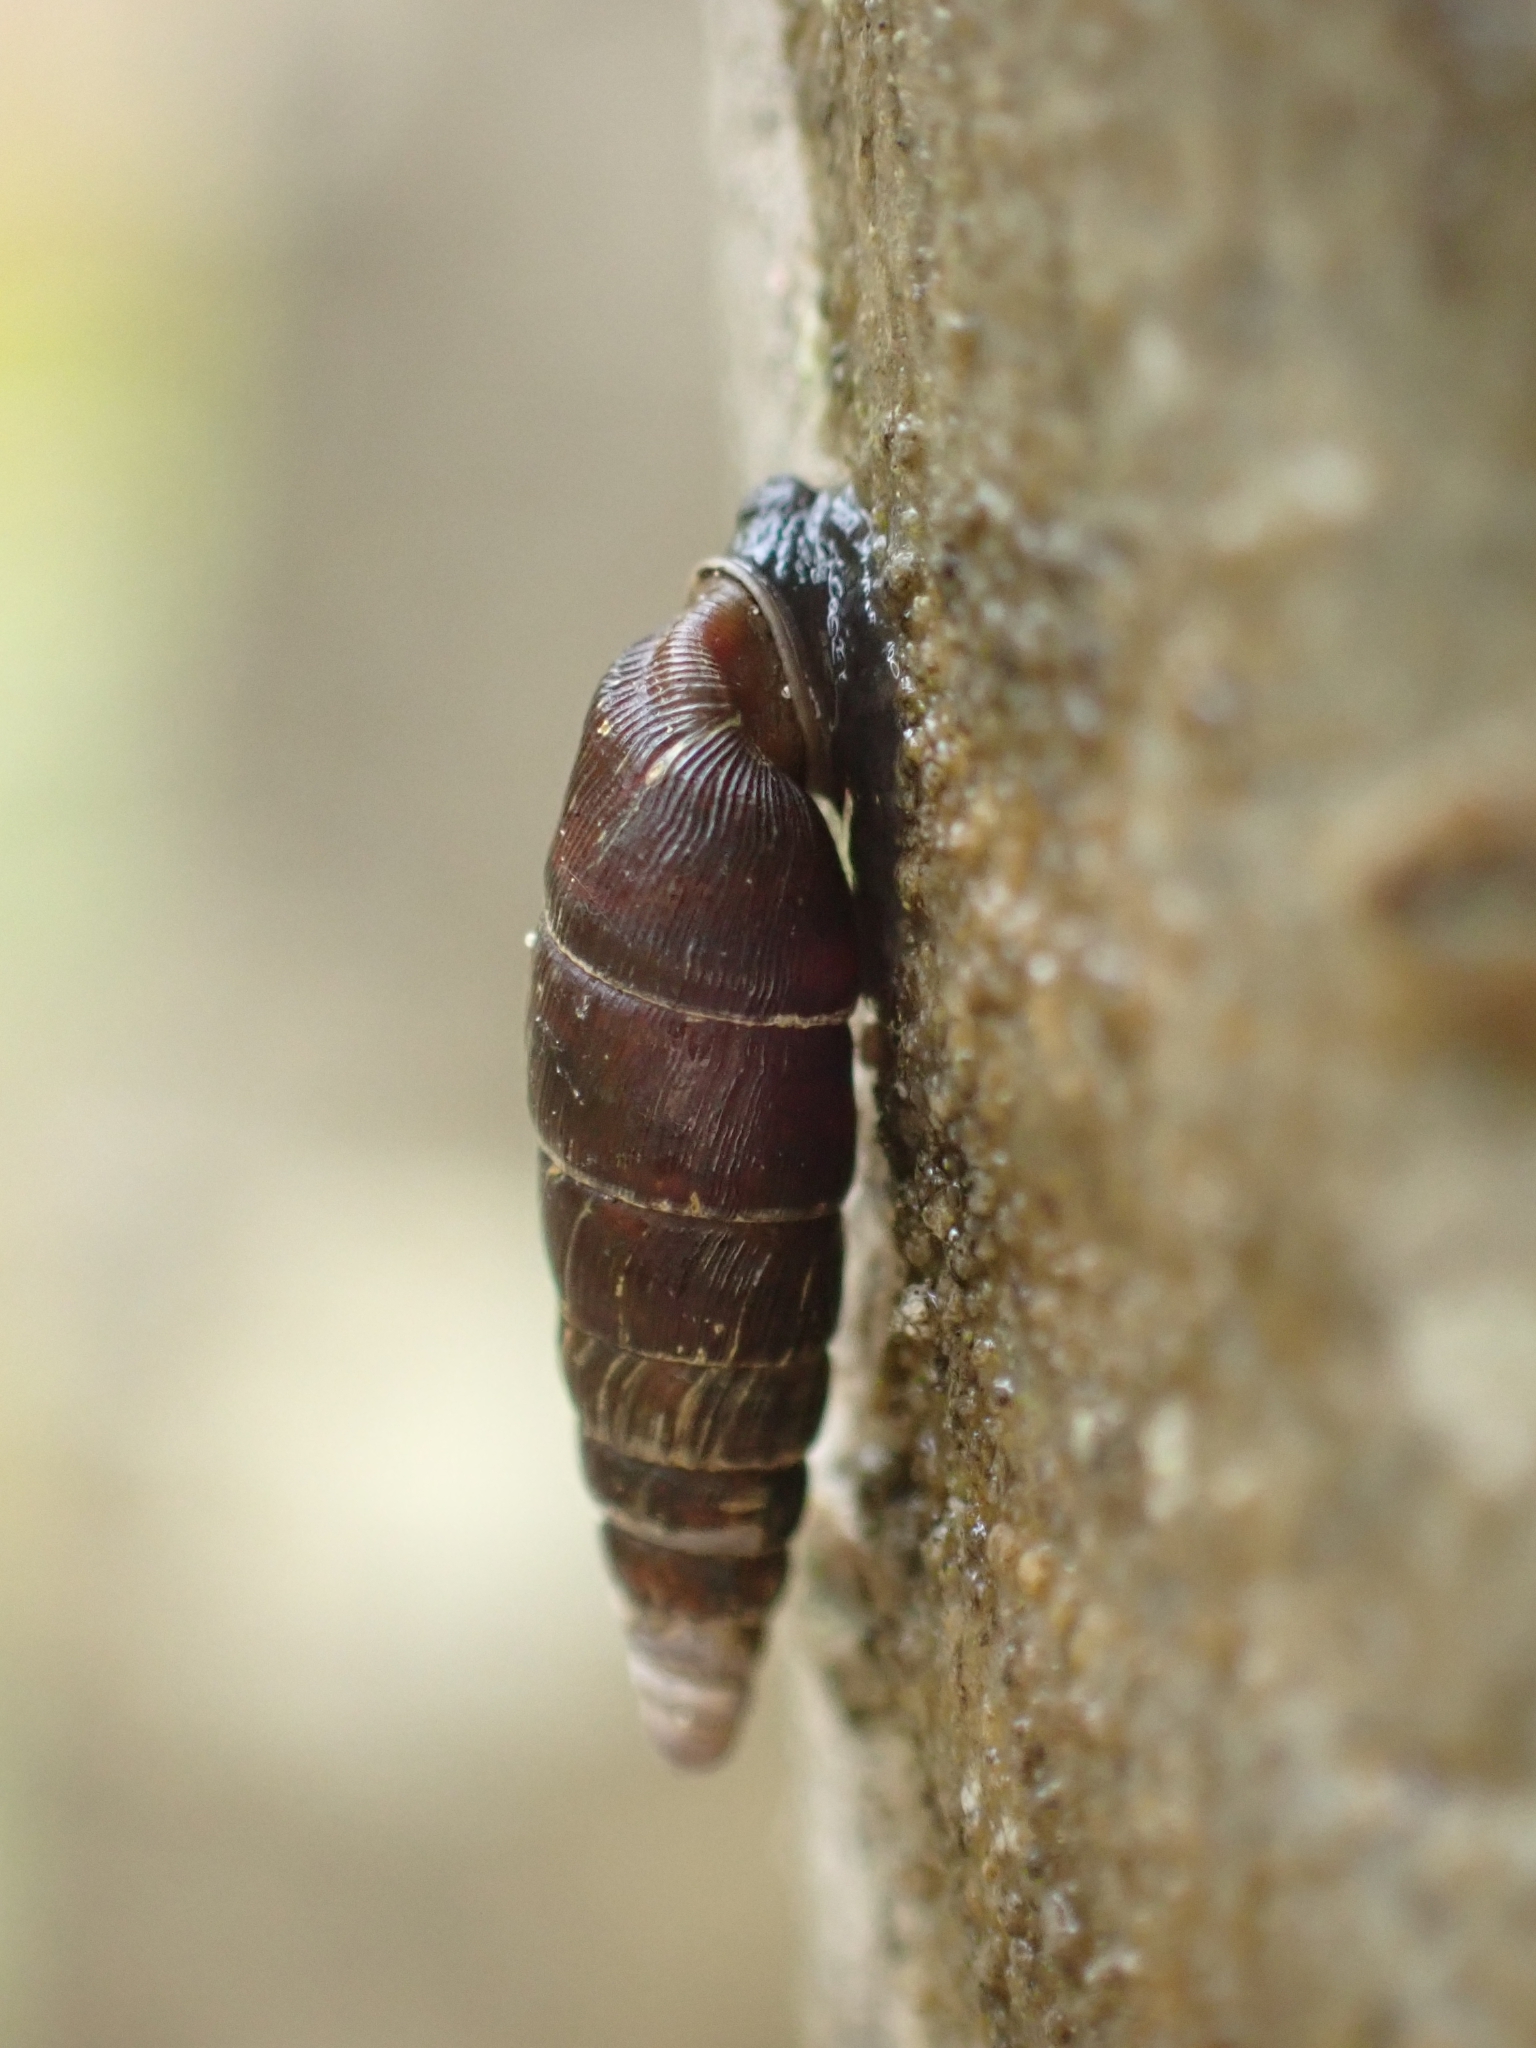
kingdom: Animalia
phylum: Mollusca
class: Gastropoda
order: Stylommatophora
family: Clausiliidae
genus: Clausilia
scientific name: Clausilia bidentata
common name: Two-toothed door snail
